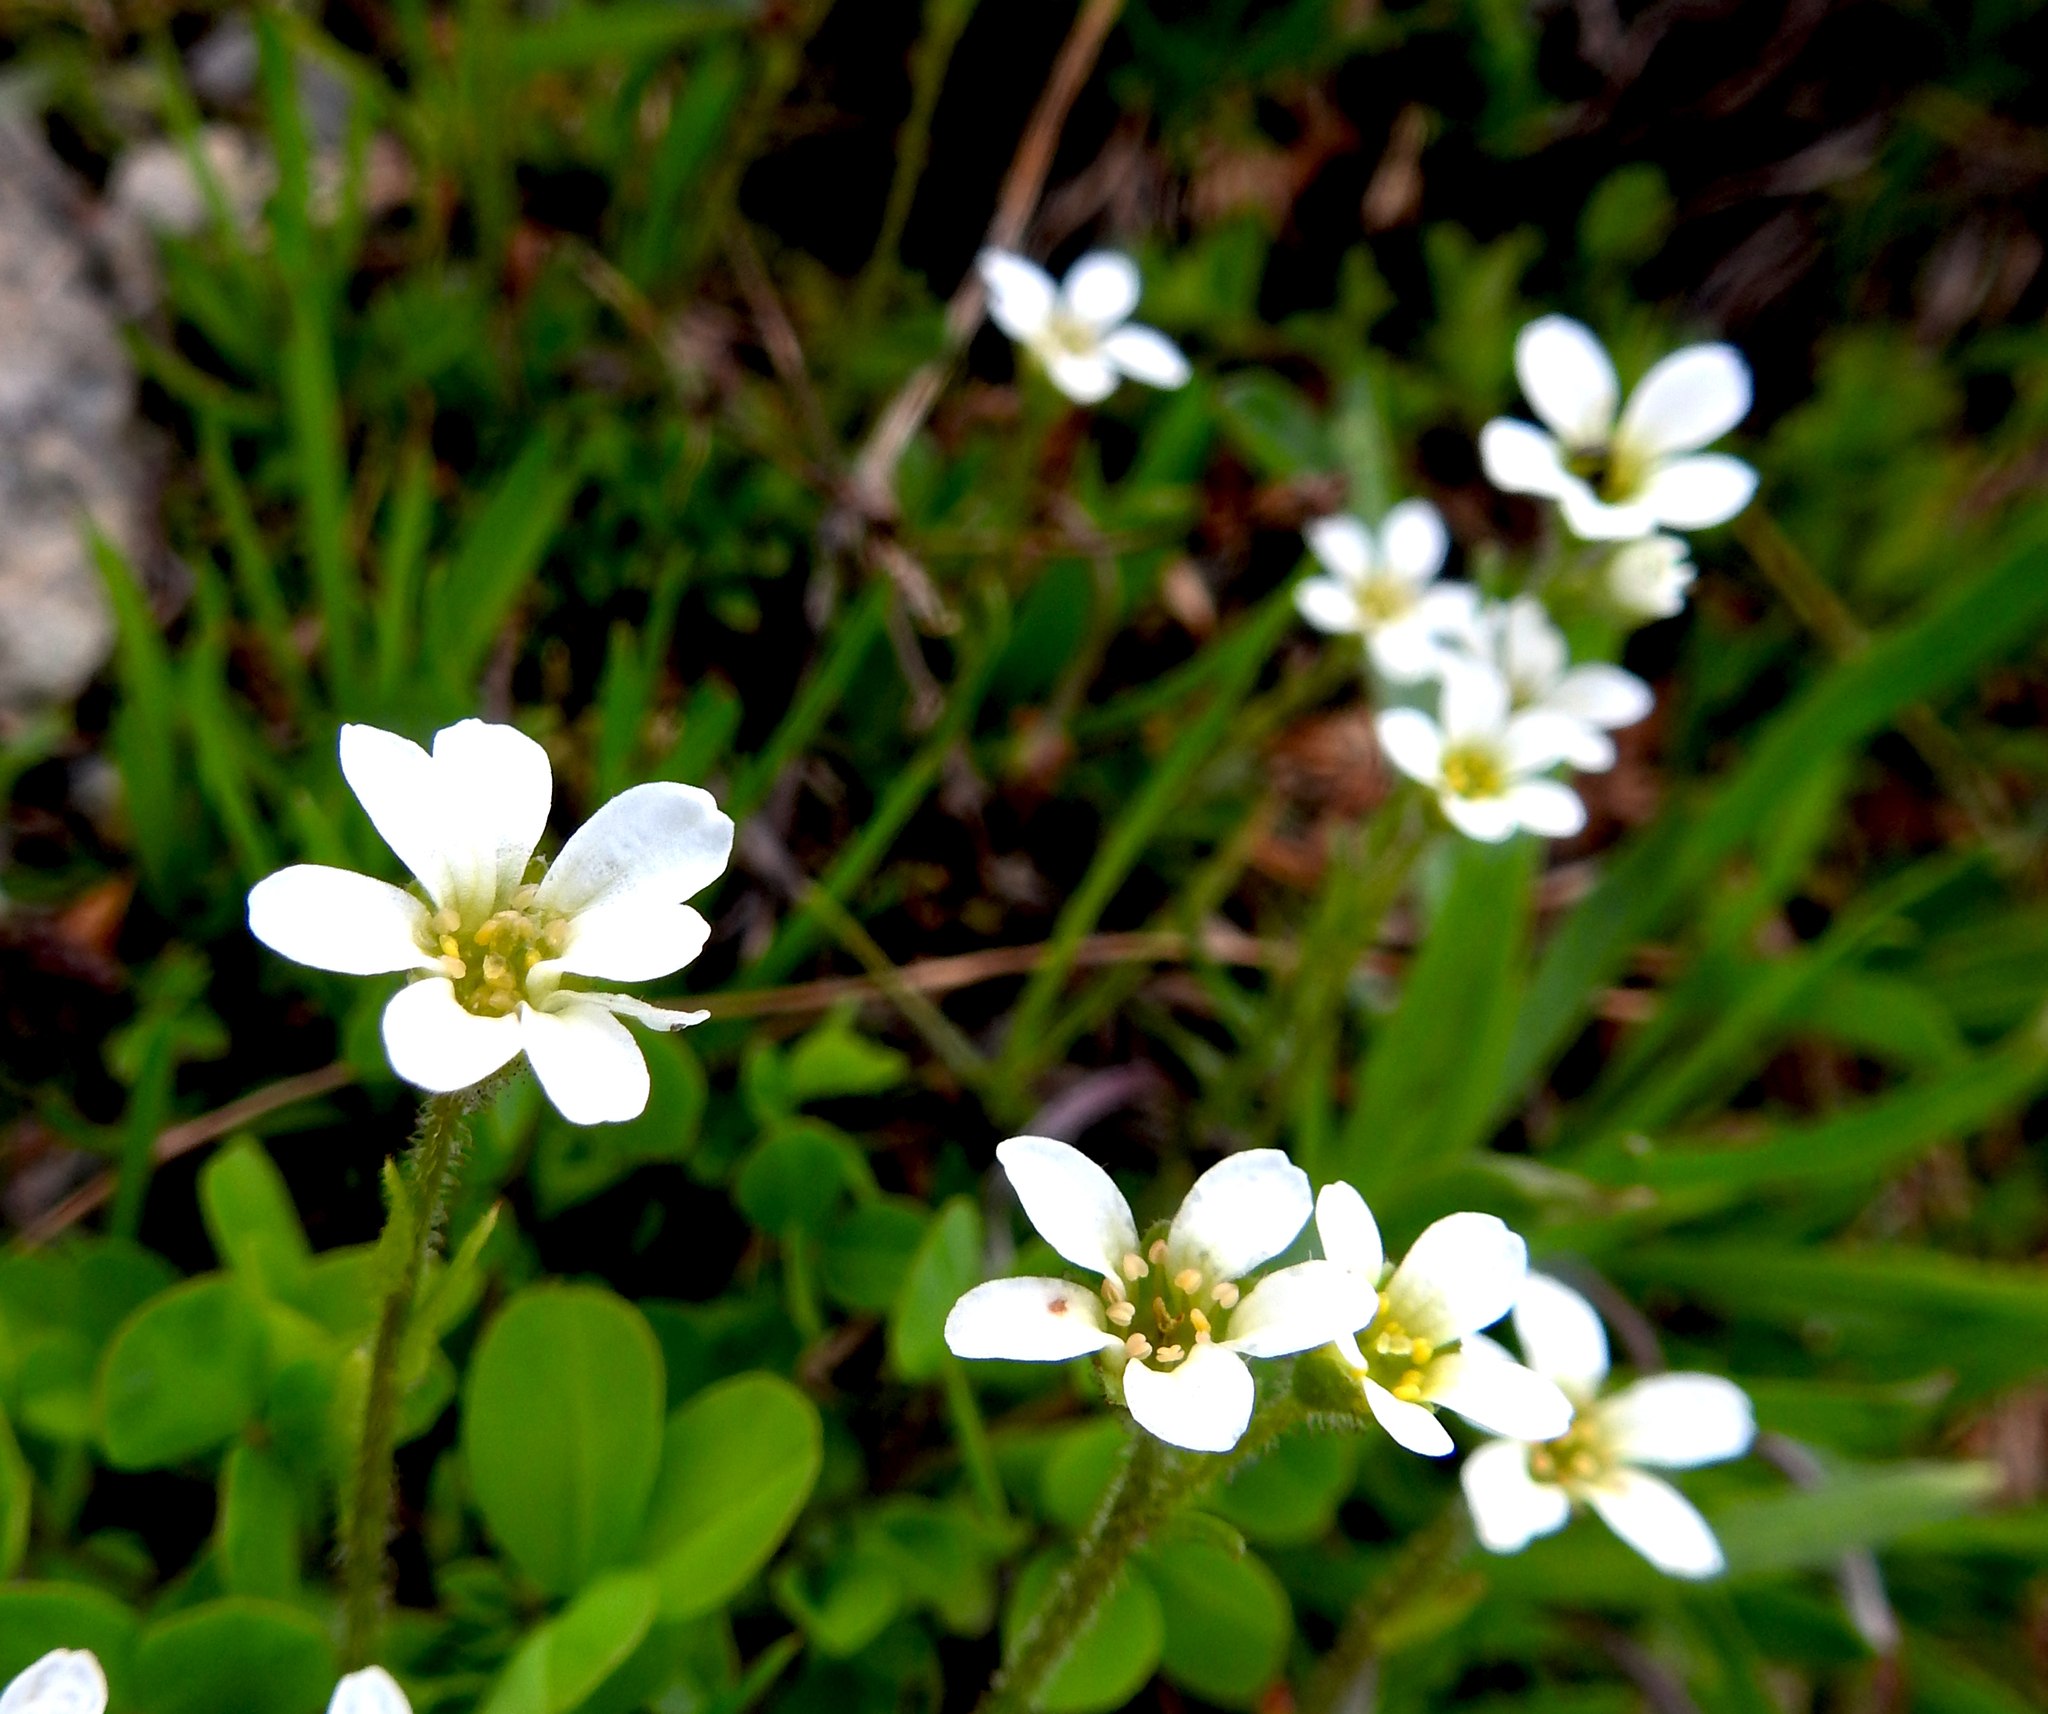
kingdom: Plantae
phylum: Tracheophyta
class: Magnoliopsida
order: Saxifragales
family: Saxifragaceae
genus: Saxifraga
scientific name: Saxifraga androsacea
